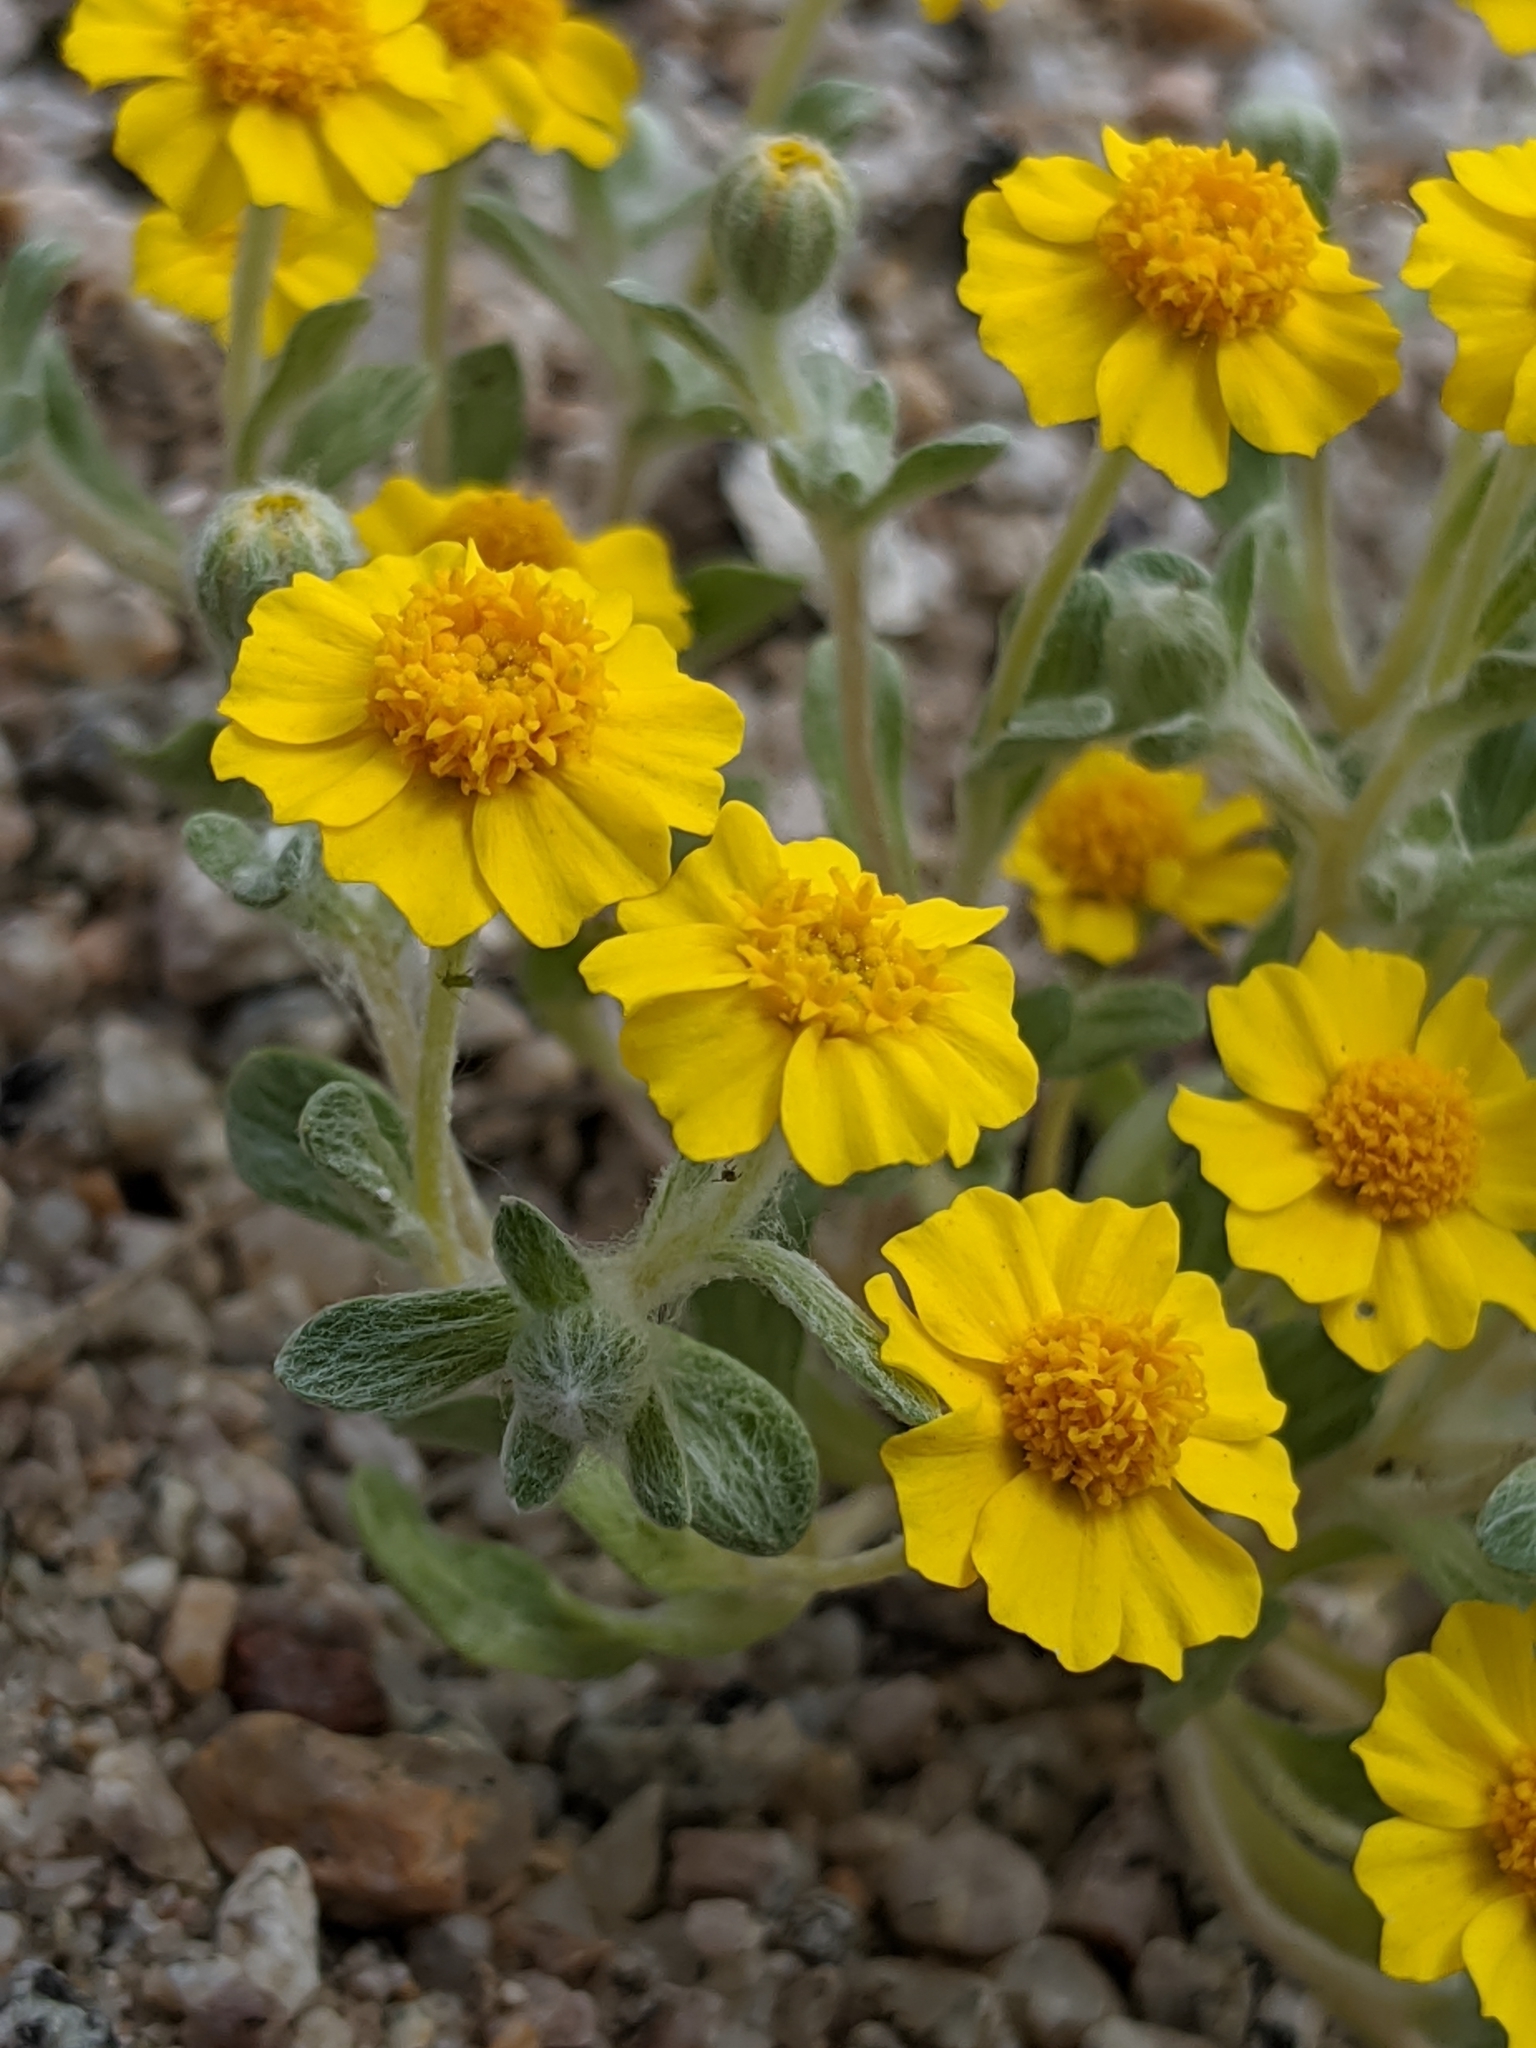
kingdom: Plantae
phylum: Tracheophyta
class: Magnoliopsida
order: Asterales
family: Asteraceae
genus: Eriophyllum
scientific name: Eriophyllum wallacei
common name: Wallace's woolly daisy
